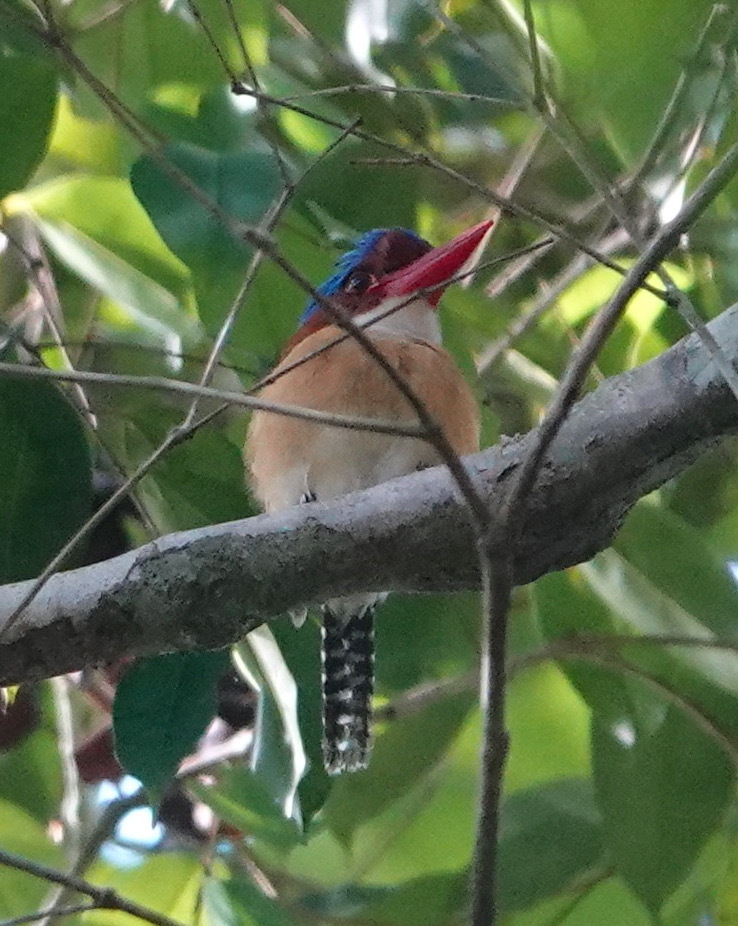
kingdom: Animalia
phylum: Chordata
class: Aves
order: Coraciiformes
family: Alcedinidae
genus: Lacedo
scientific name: Lacedo pulchella
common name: Banded kingfisher
